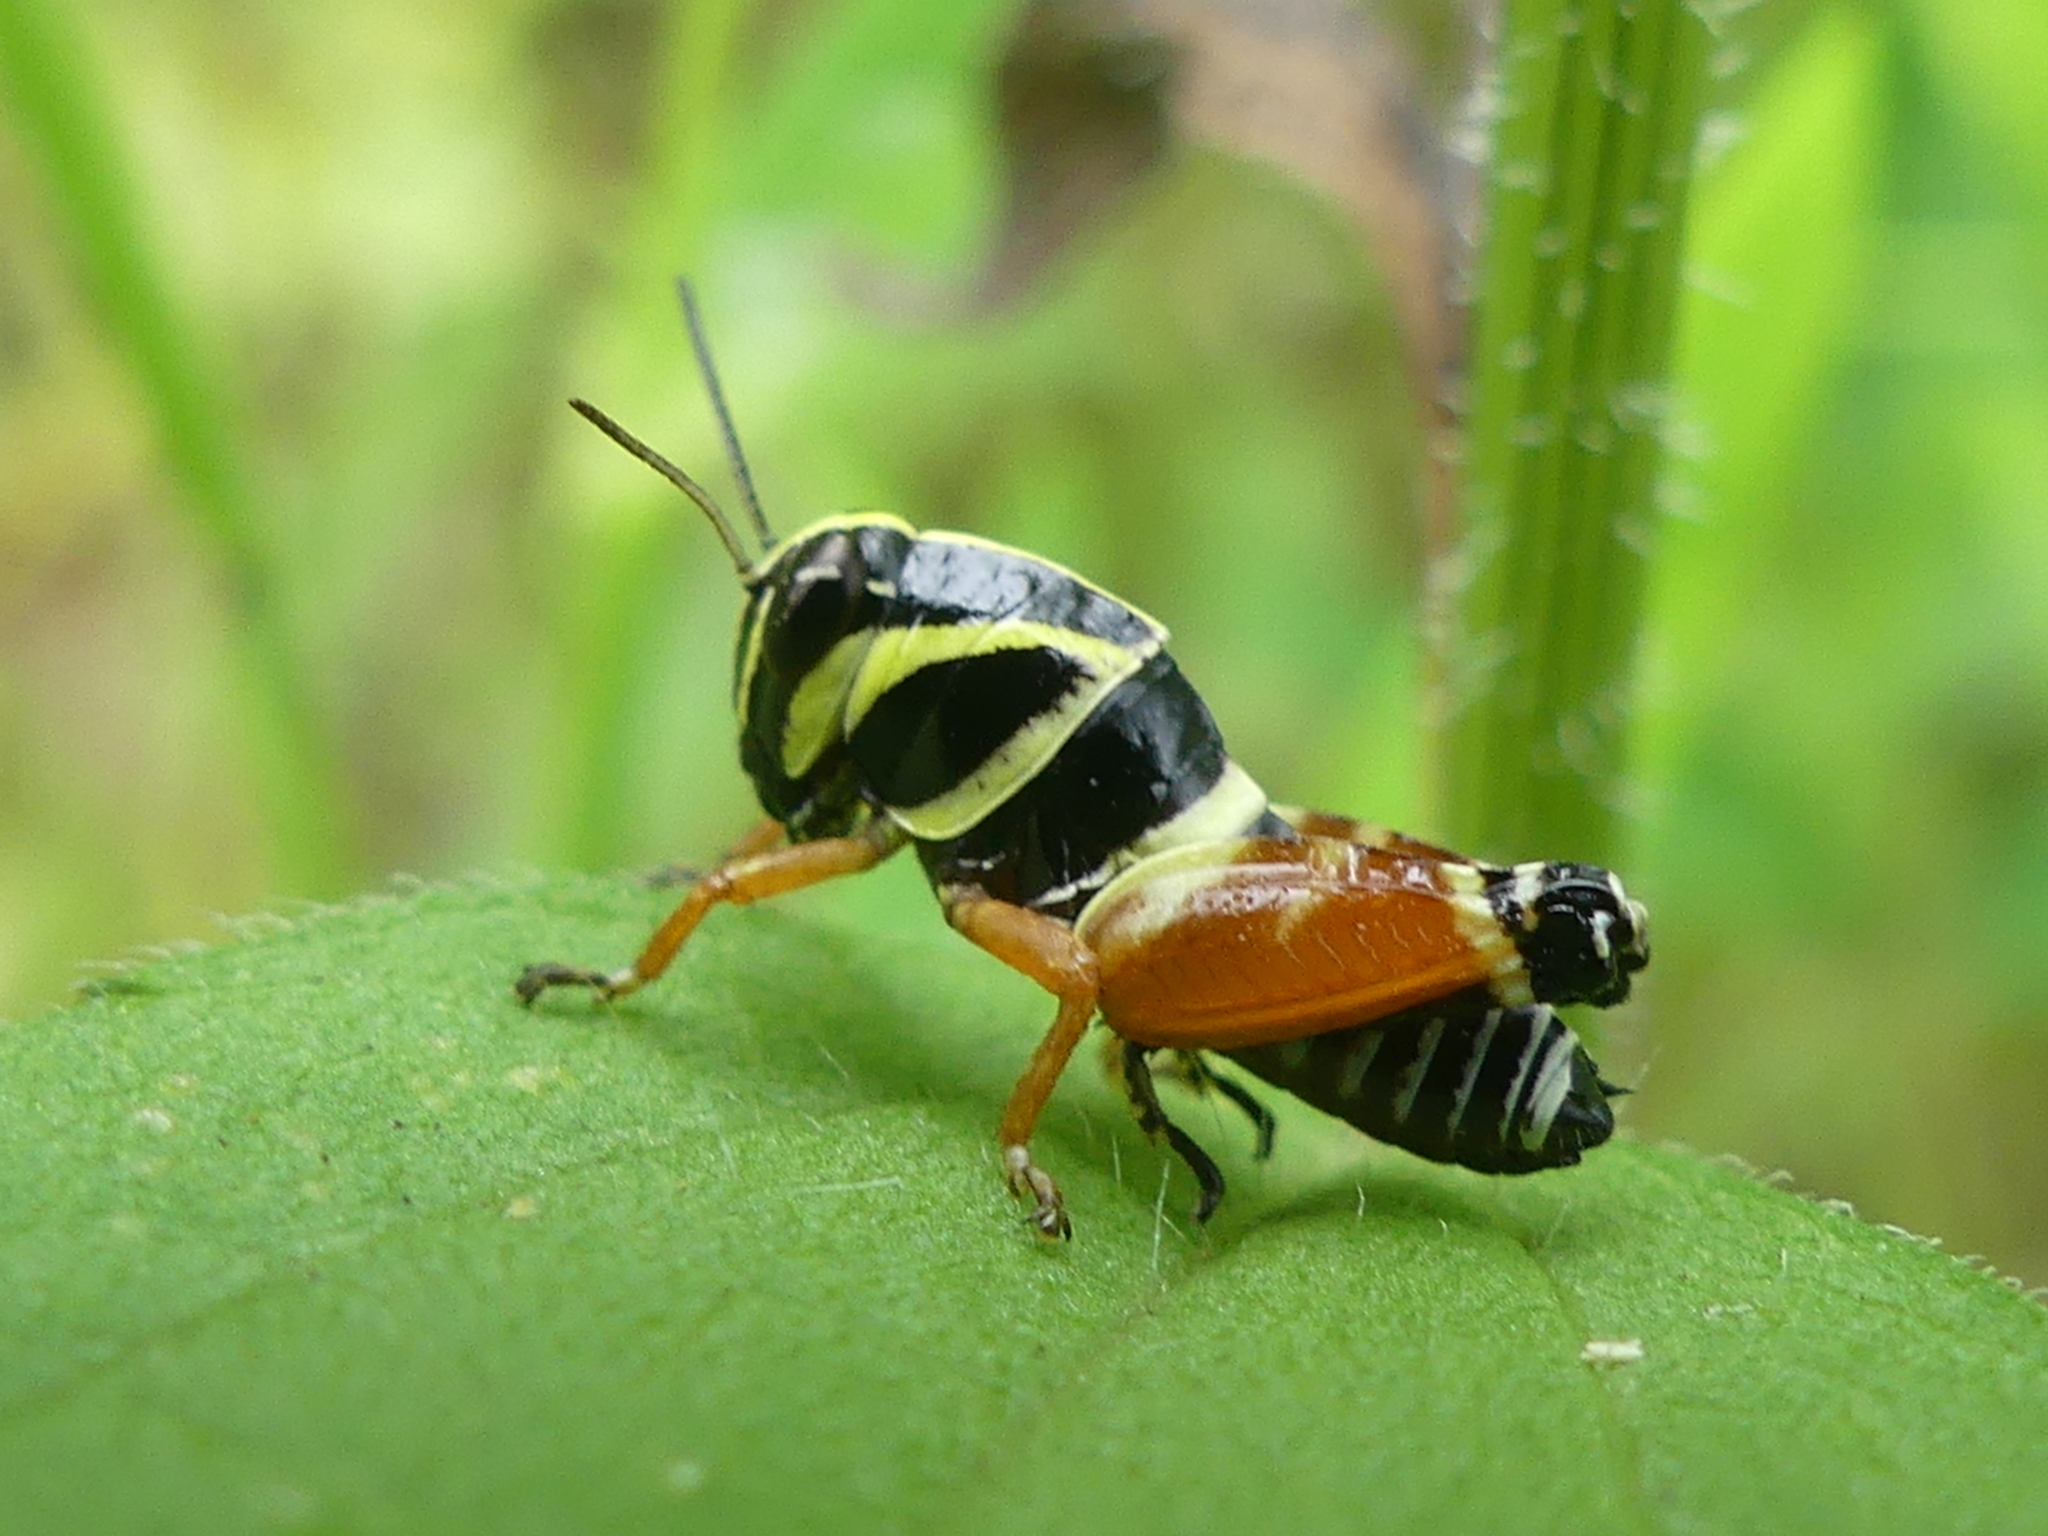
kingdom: Animalia
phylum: Arthropoda
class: Insecta
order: Orthoptera
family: Acrididae
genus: Aidemona
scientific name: Aidemona azteca
